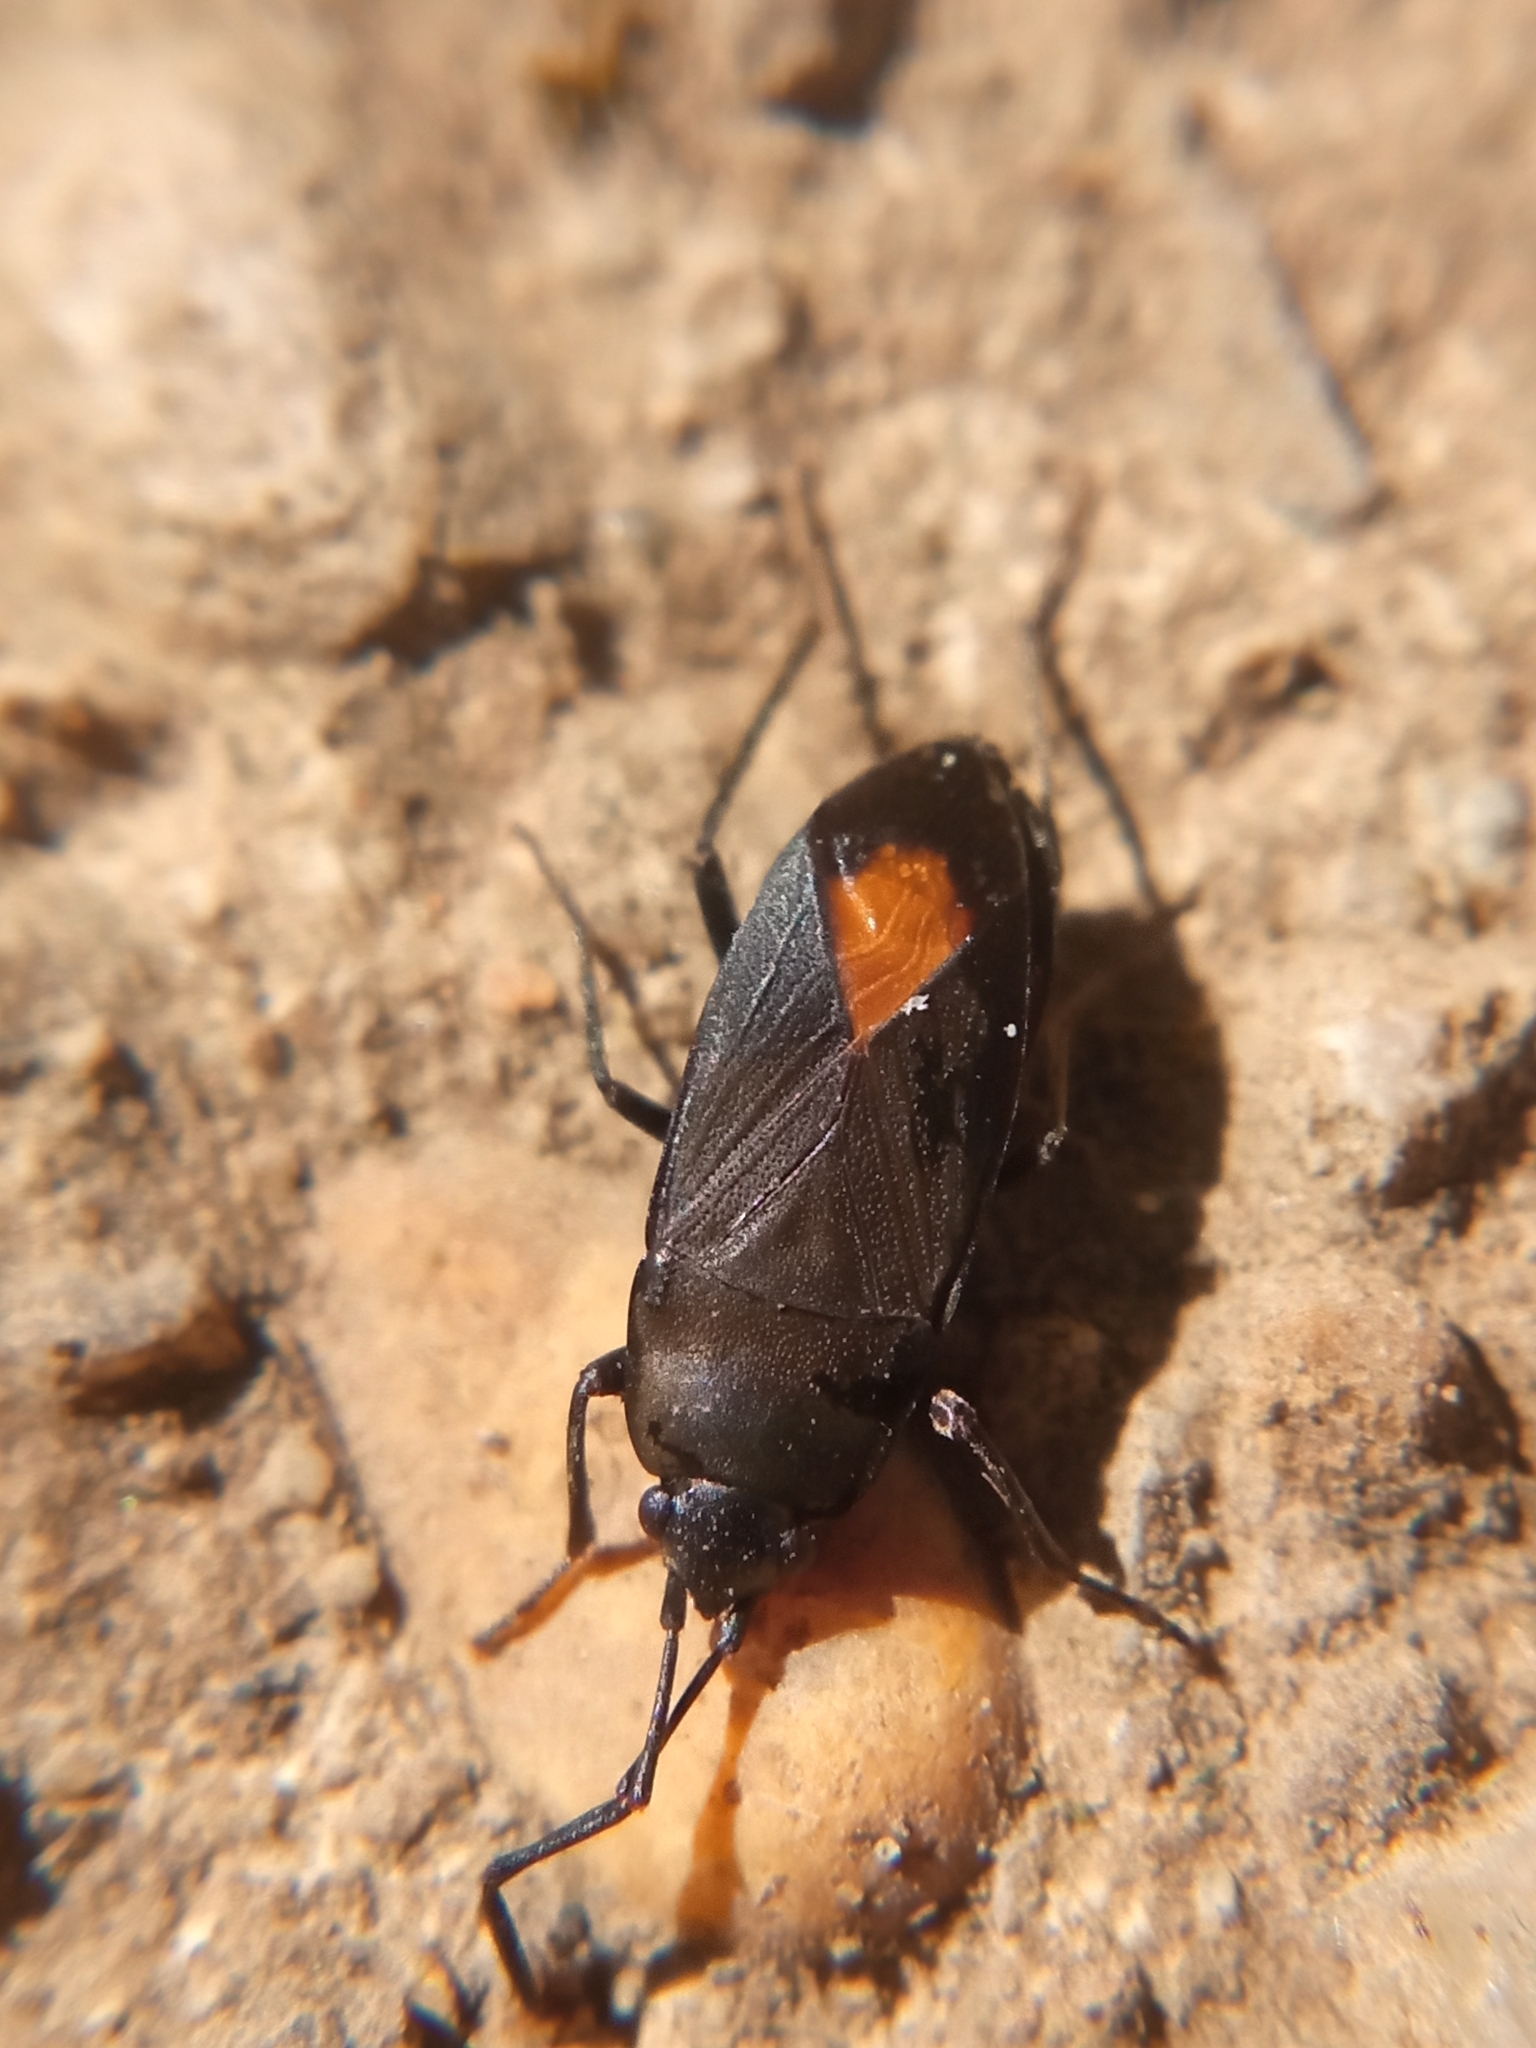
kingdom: Animalia
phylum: Arthropoda
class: Insecta
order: Hemiptera
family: Rhyparochromidae
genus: Aphanus
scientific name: Aphanus rolandri
